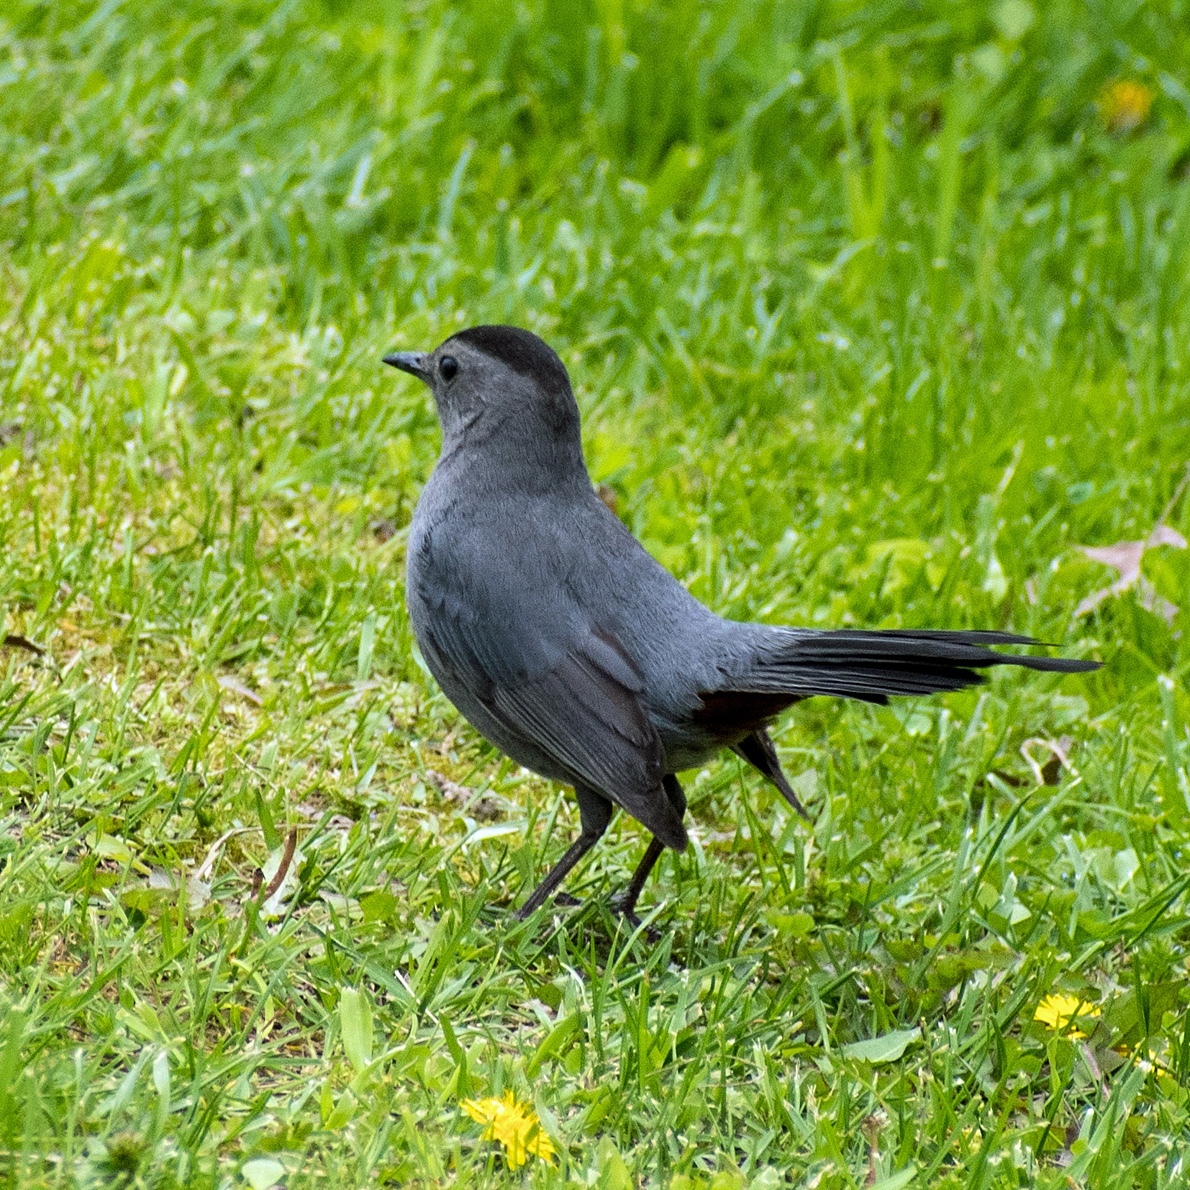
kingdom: Animalia
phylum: Chordata
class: Aves
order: Passeriformes
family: Mimidae
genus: Dumetella
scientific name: Dumetella carolinensis
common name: Gray catbird
